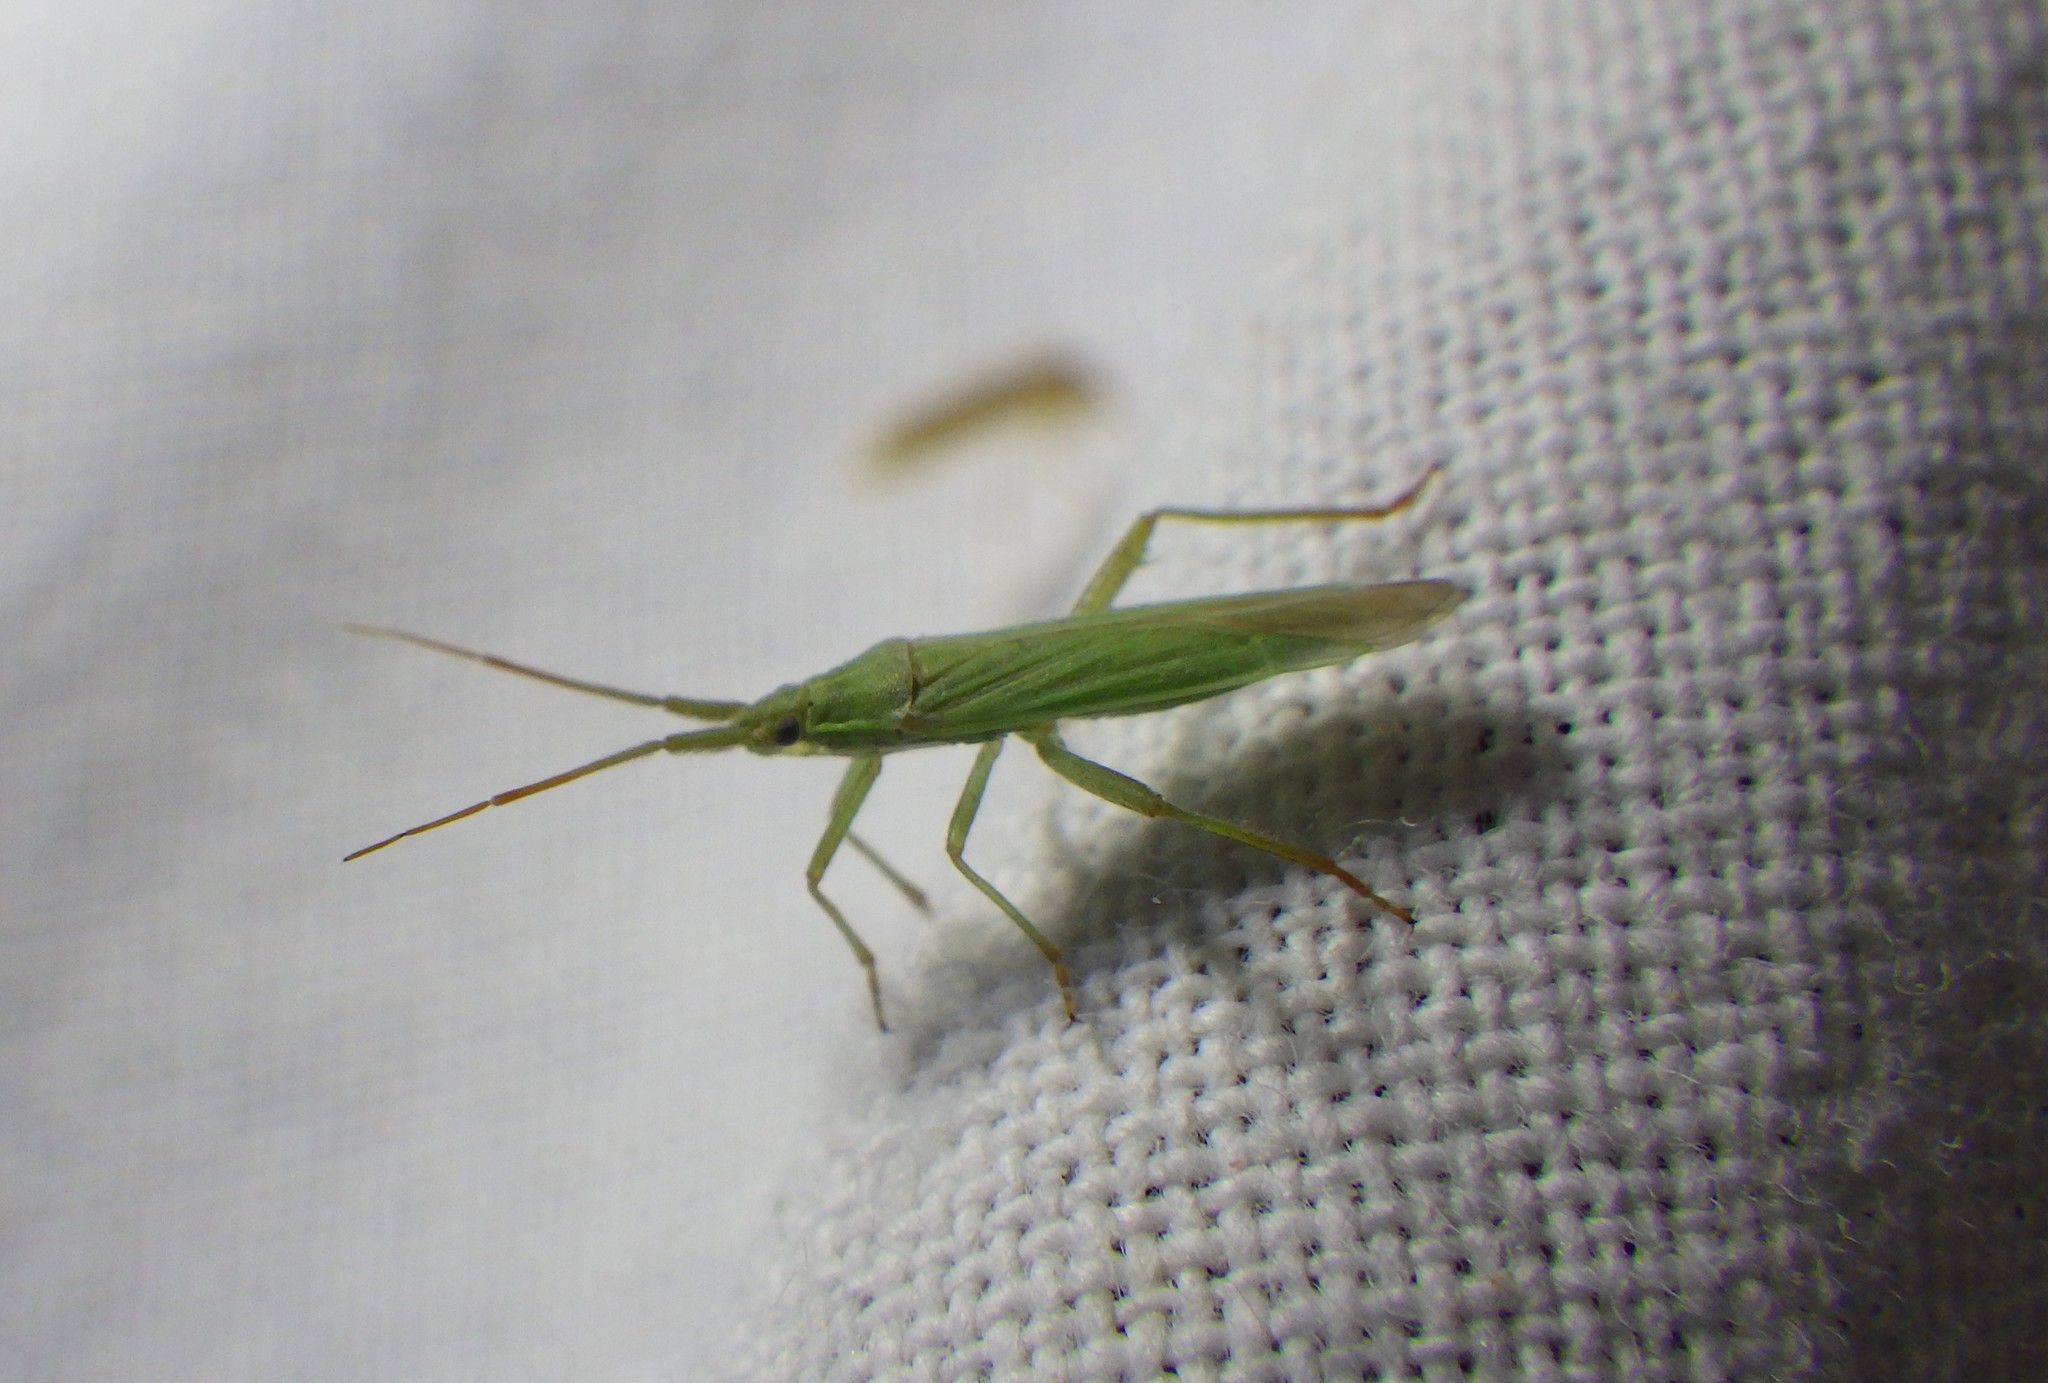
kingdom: Animalia
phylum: Arthropoda
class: Insecta
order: Hemiptera
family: Miridae
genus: Stenodema
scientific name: Stenodema calcarata
